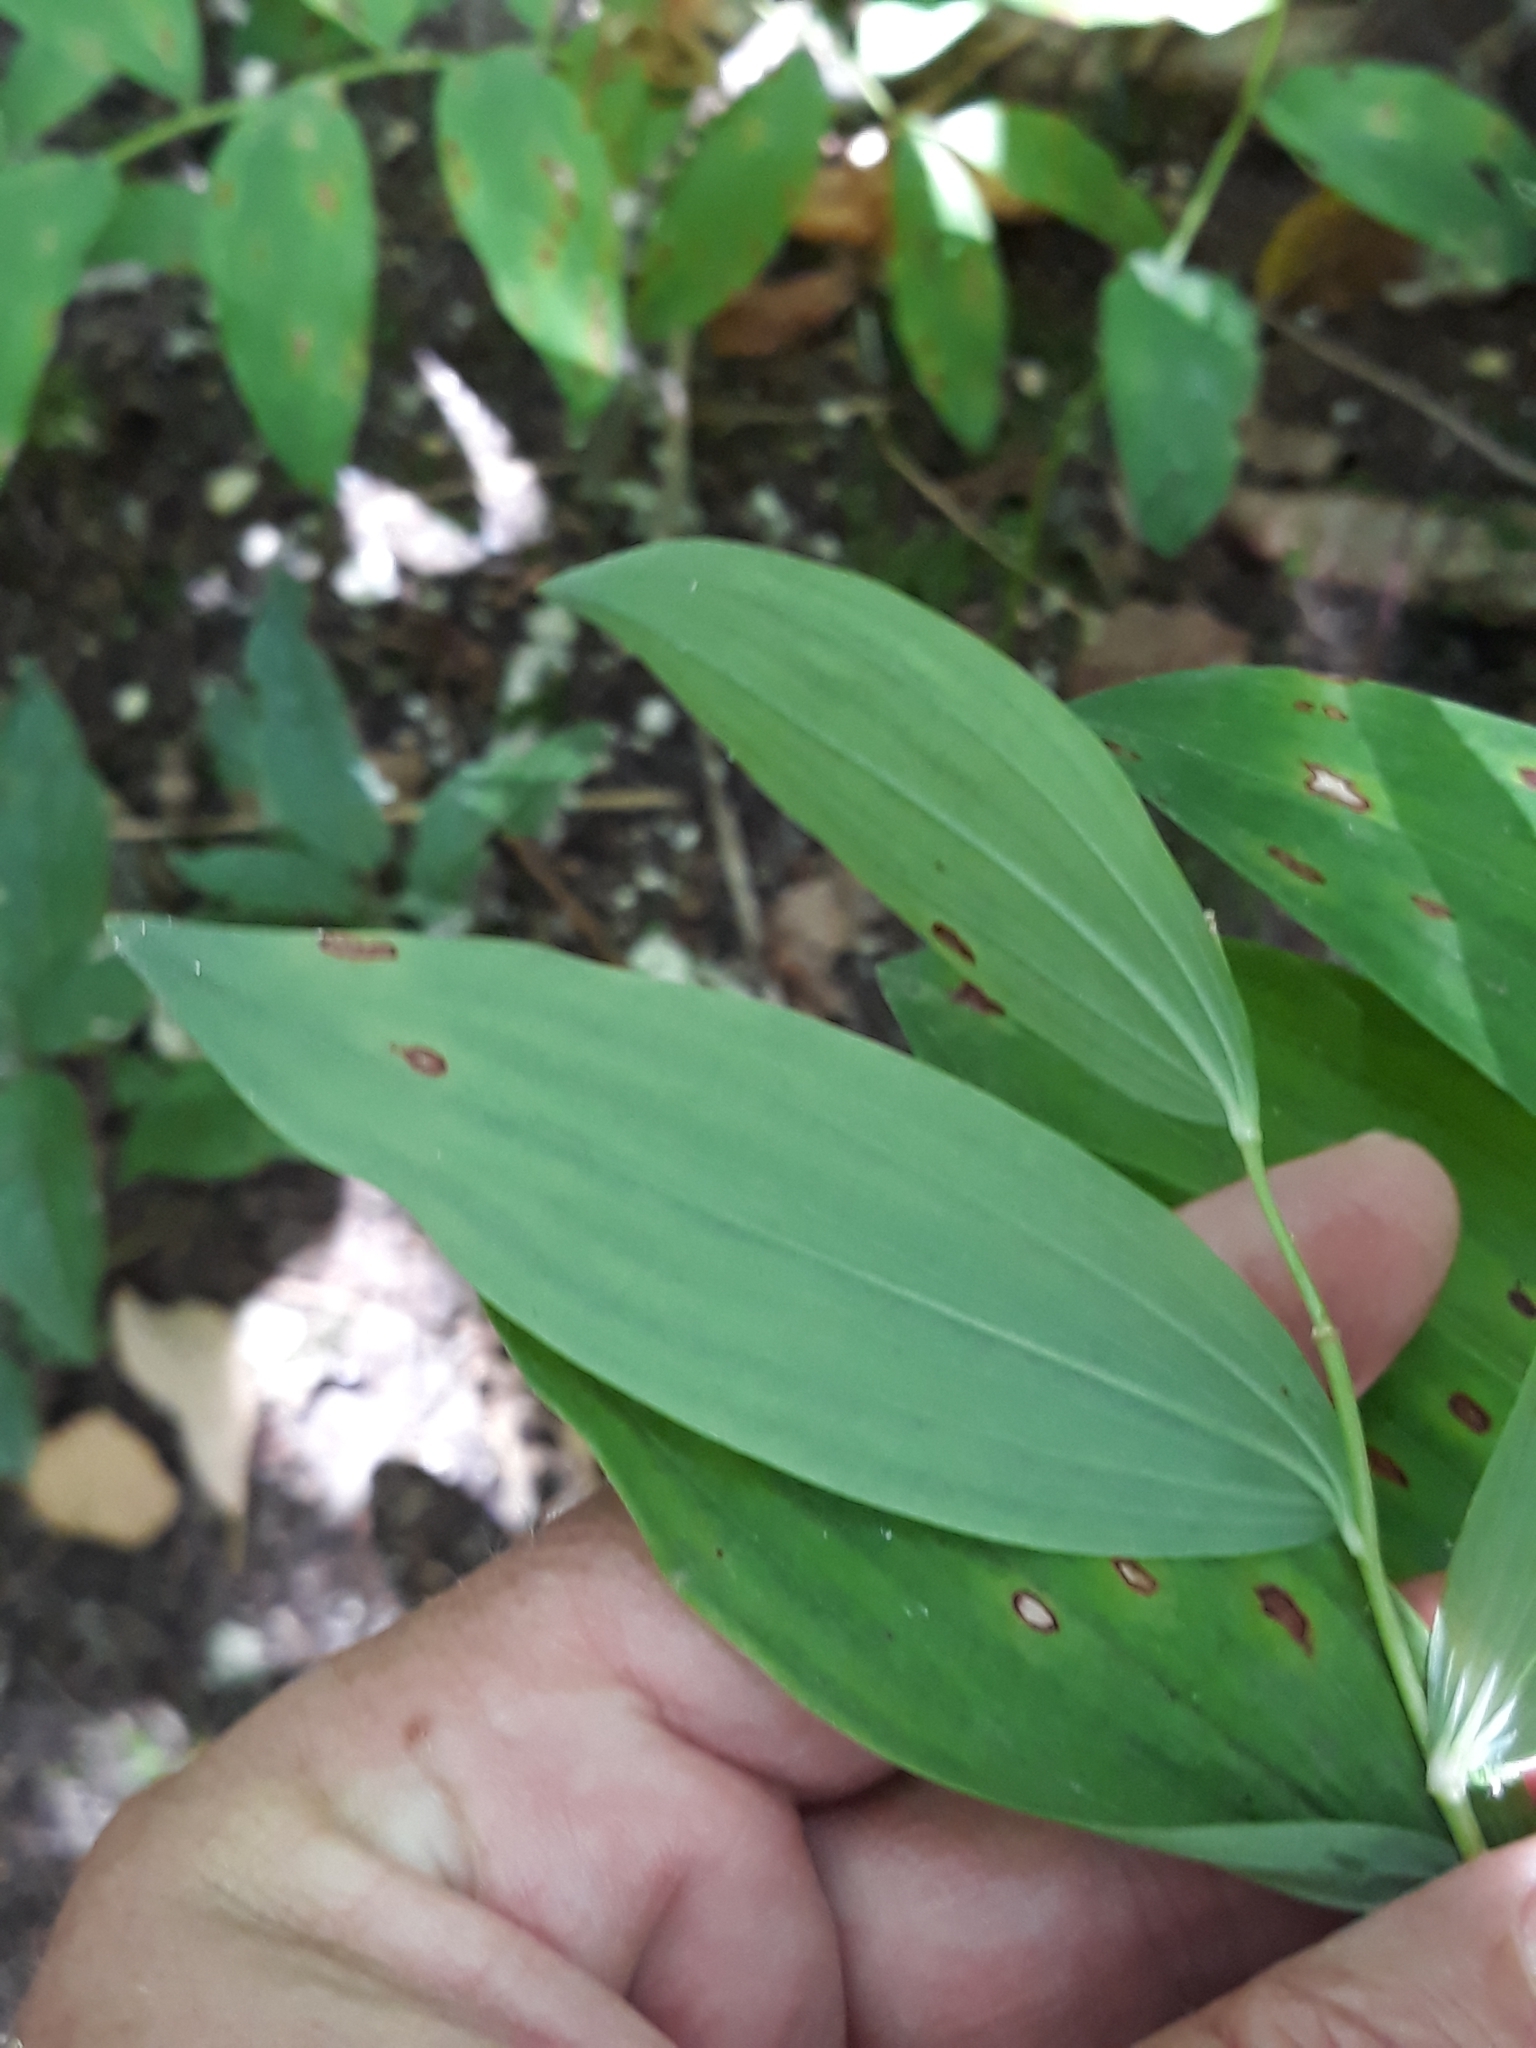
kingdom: Fungi
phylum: Ascomycota
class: Dothideomycetes
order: Botryosphaeriales
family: Phyllostictaceae
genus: Phyllosticta
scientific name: Phyllosticta convallariae
